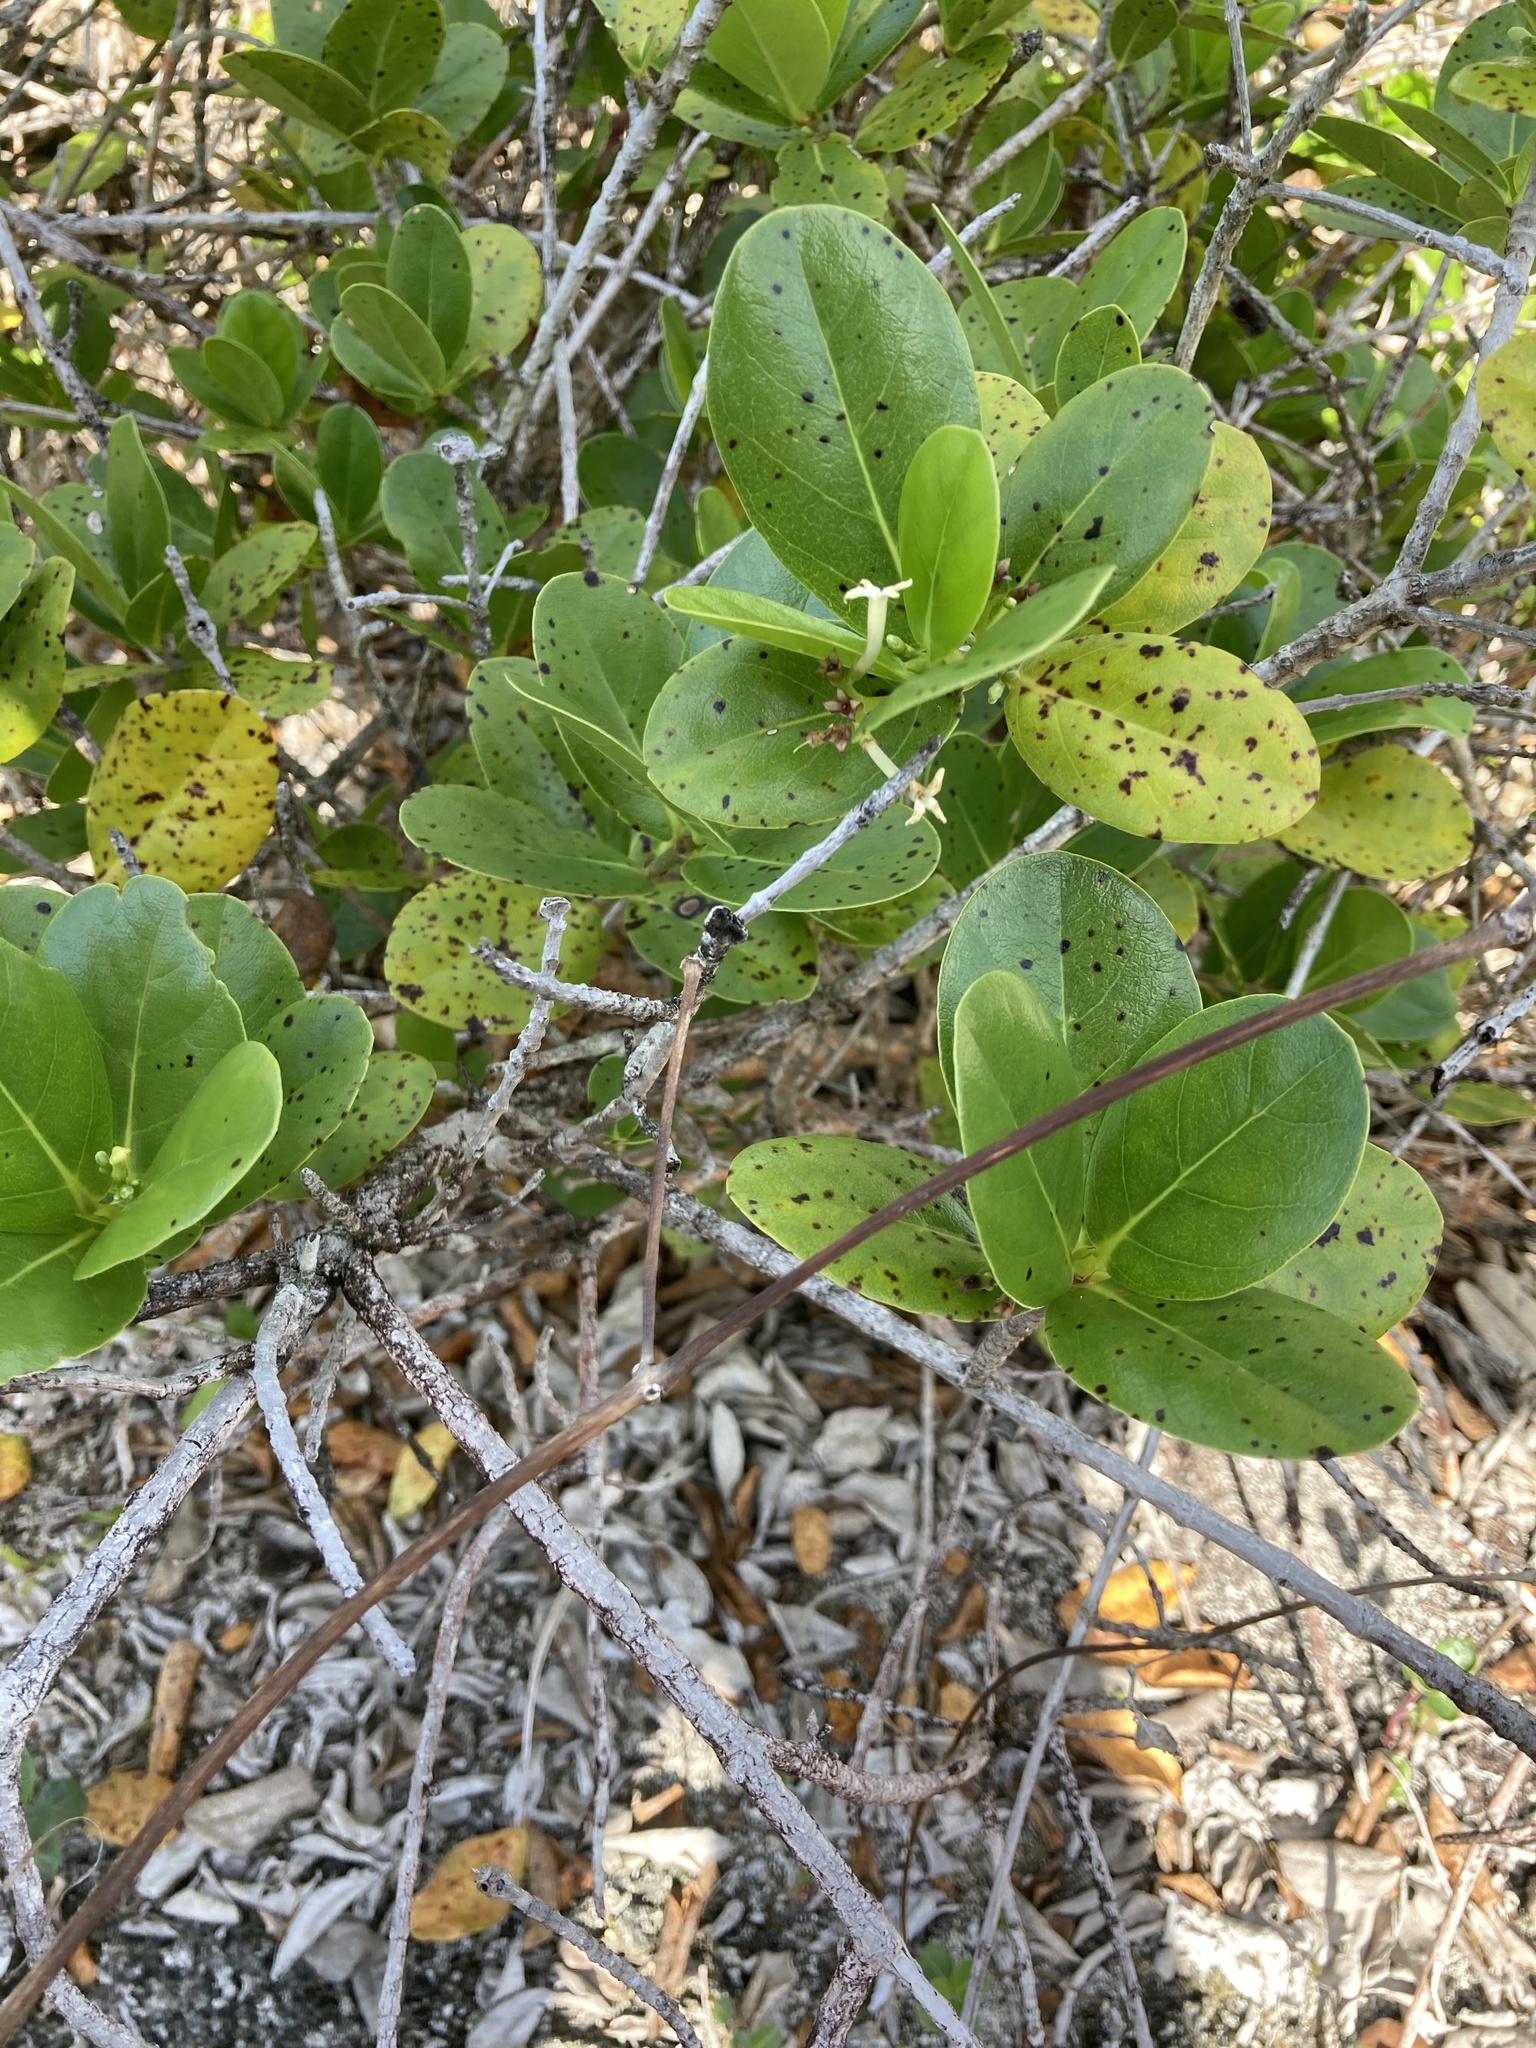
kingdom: Plantae
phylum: Tracheophyta
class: Magnoliopsida
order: Gentianales
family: Rubiaceae
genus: Timonius
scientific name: Timonius uniflorus
